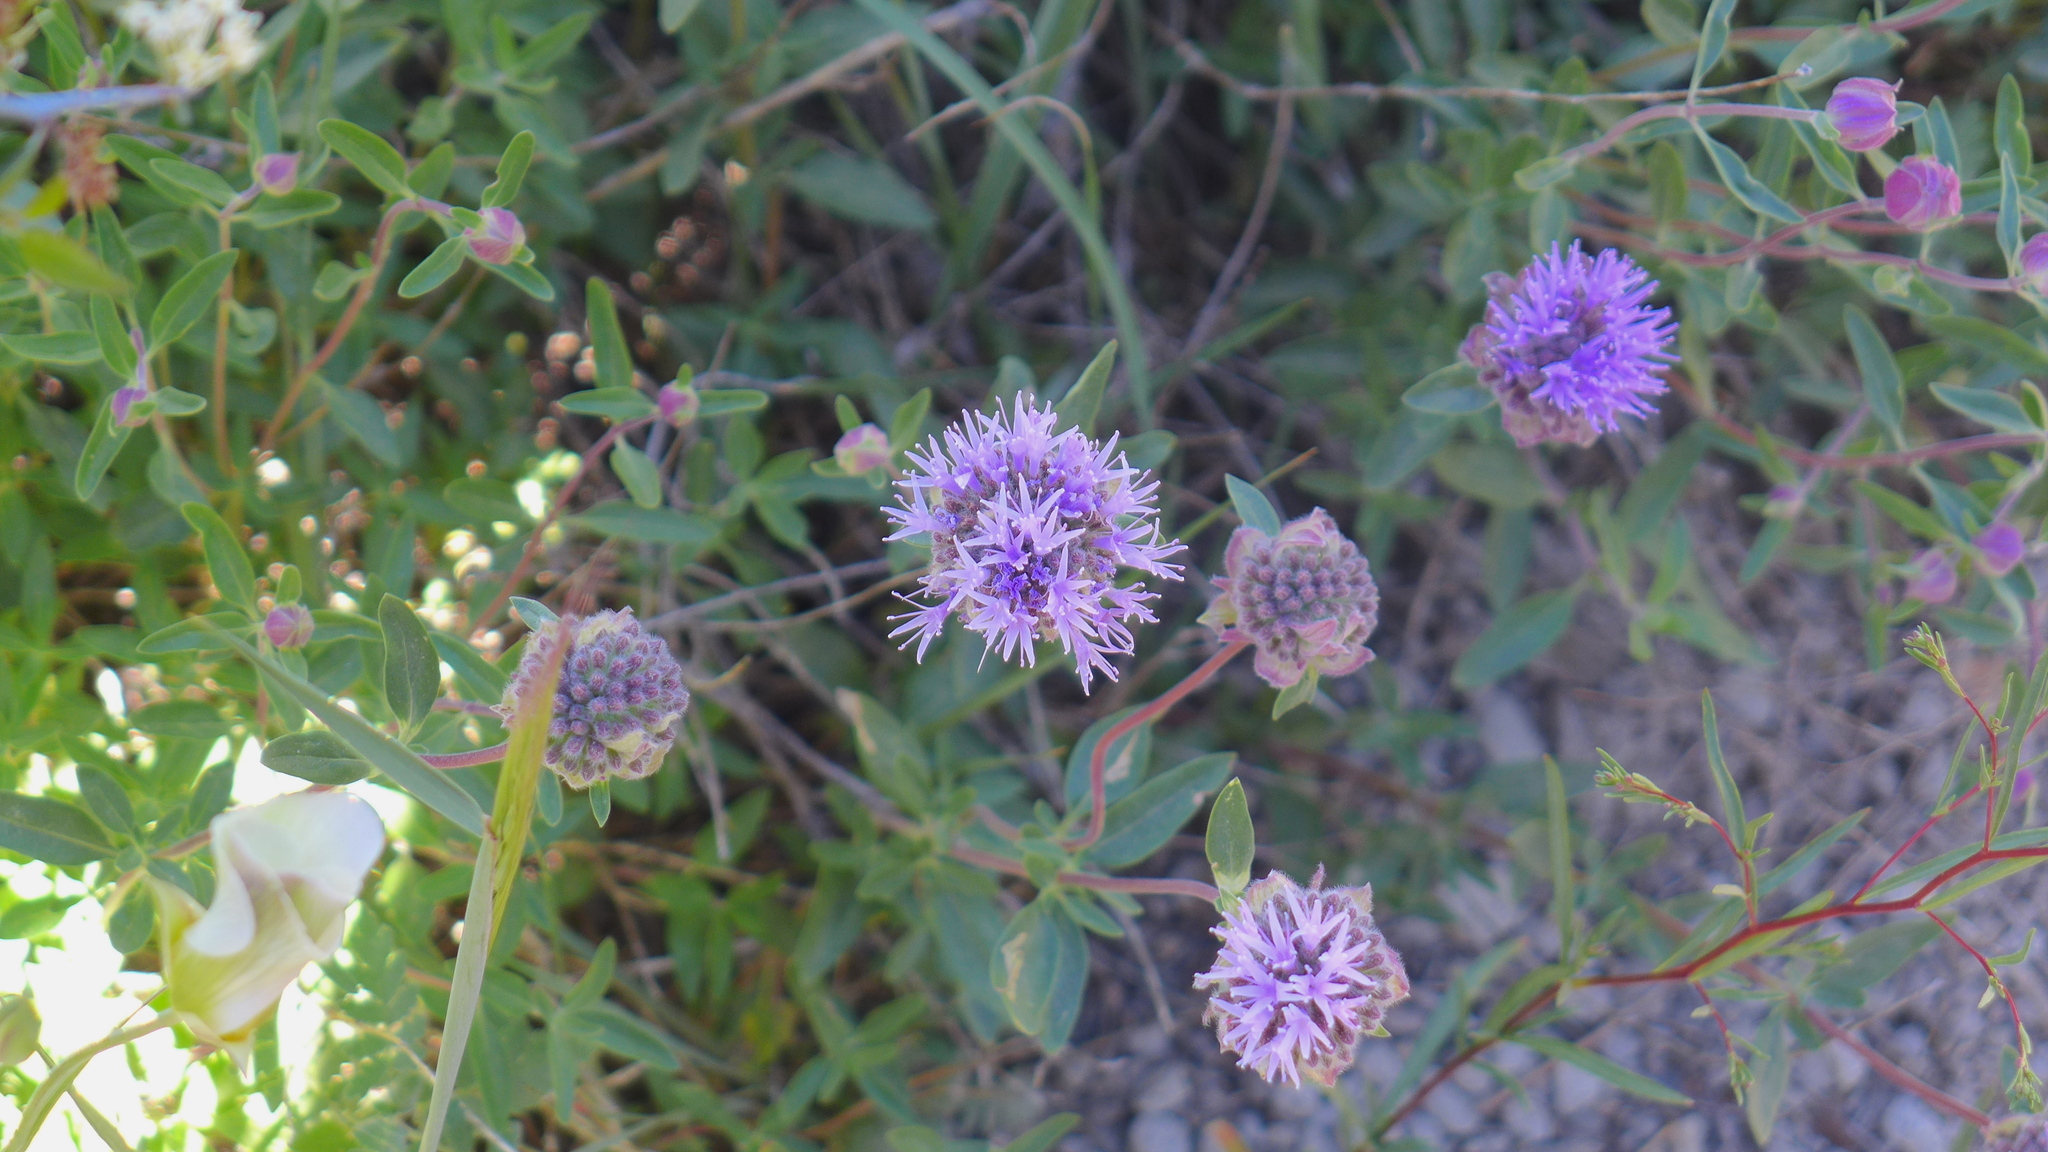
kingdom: Plantae
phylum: Tracheophyta
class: Magnoliopsida
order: Lamiales
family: Lamiaceae
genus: Monardella
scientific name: Monardella odoratissima
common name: Pacific monardella
